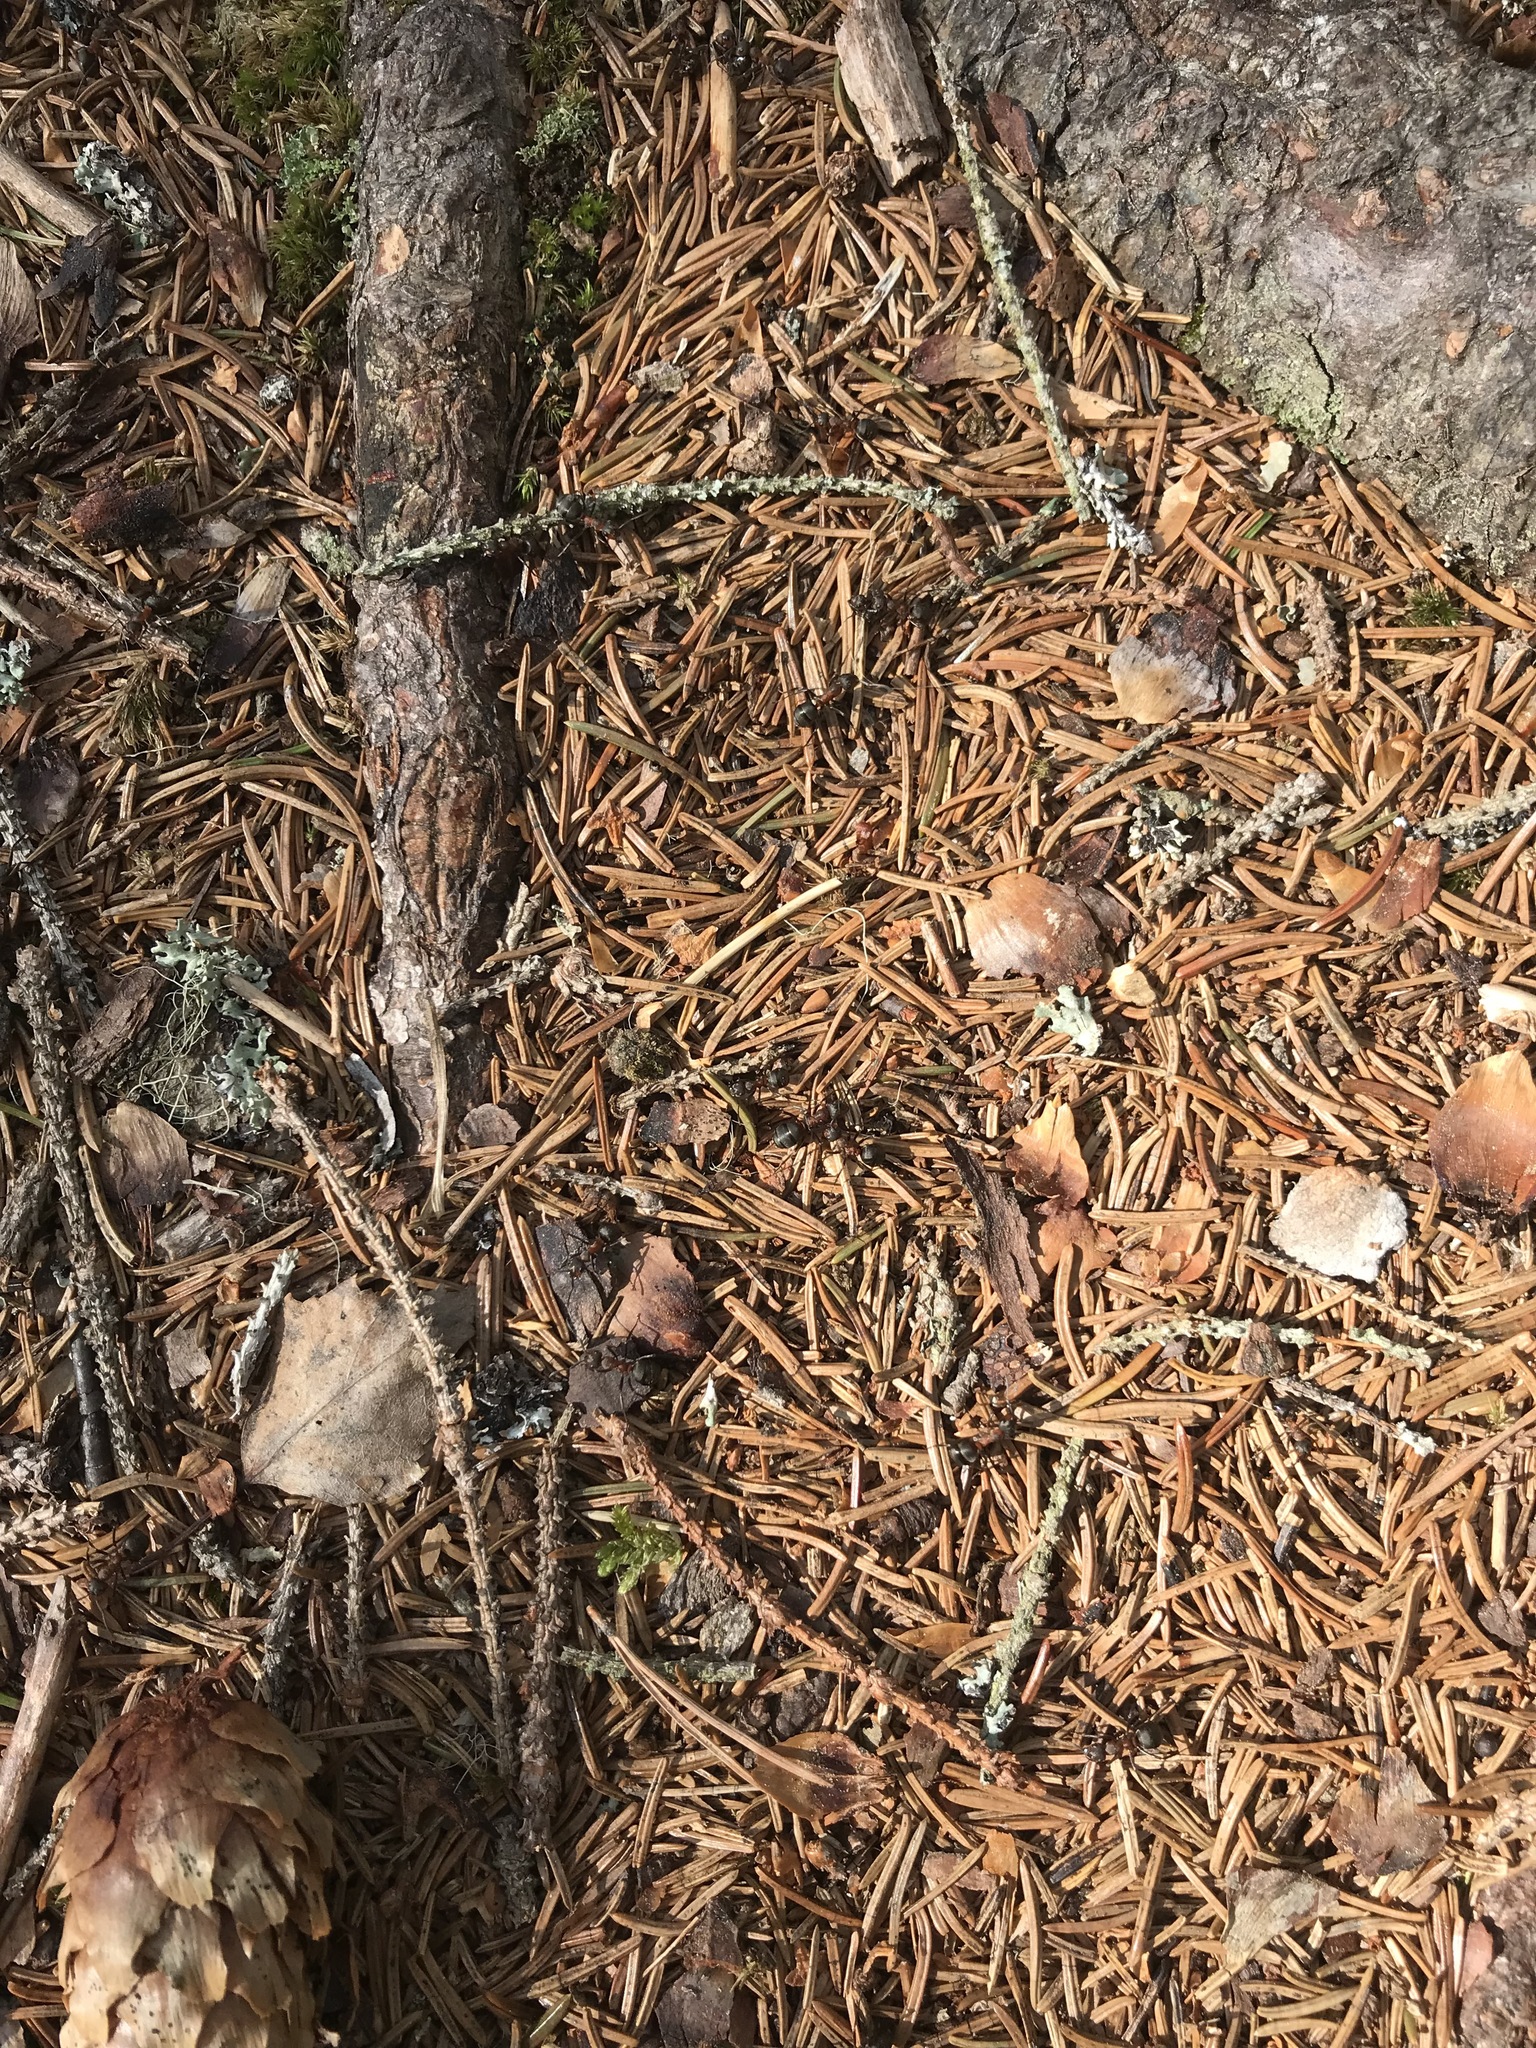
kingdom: Animalia
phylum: Arthropoda
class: Insecta
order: Hymenoptera
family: Formicidae
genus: Formica
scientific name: Formica rufa
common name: Red wood ant
